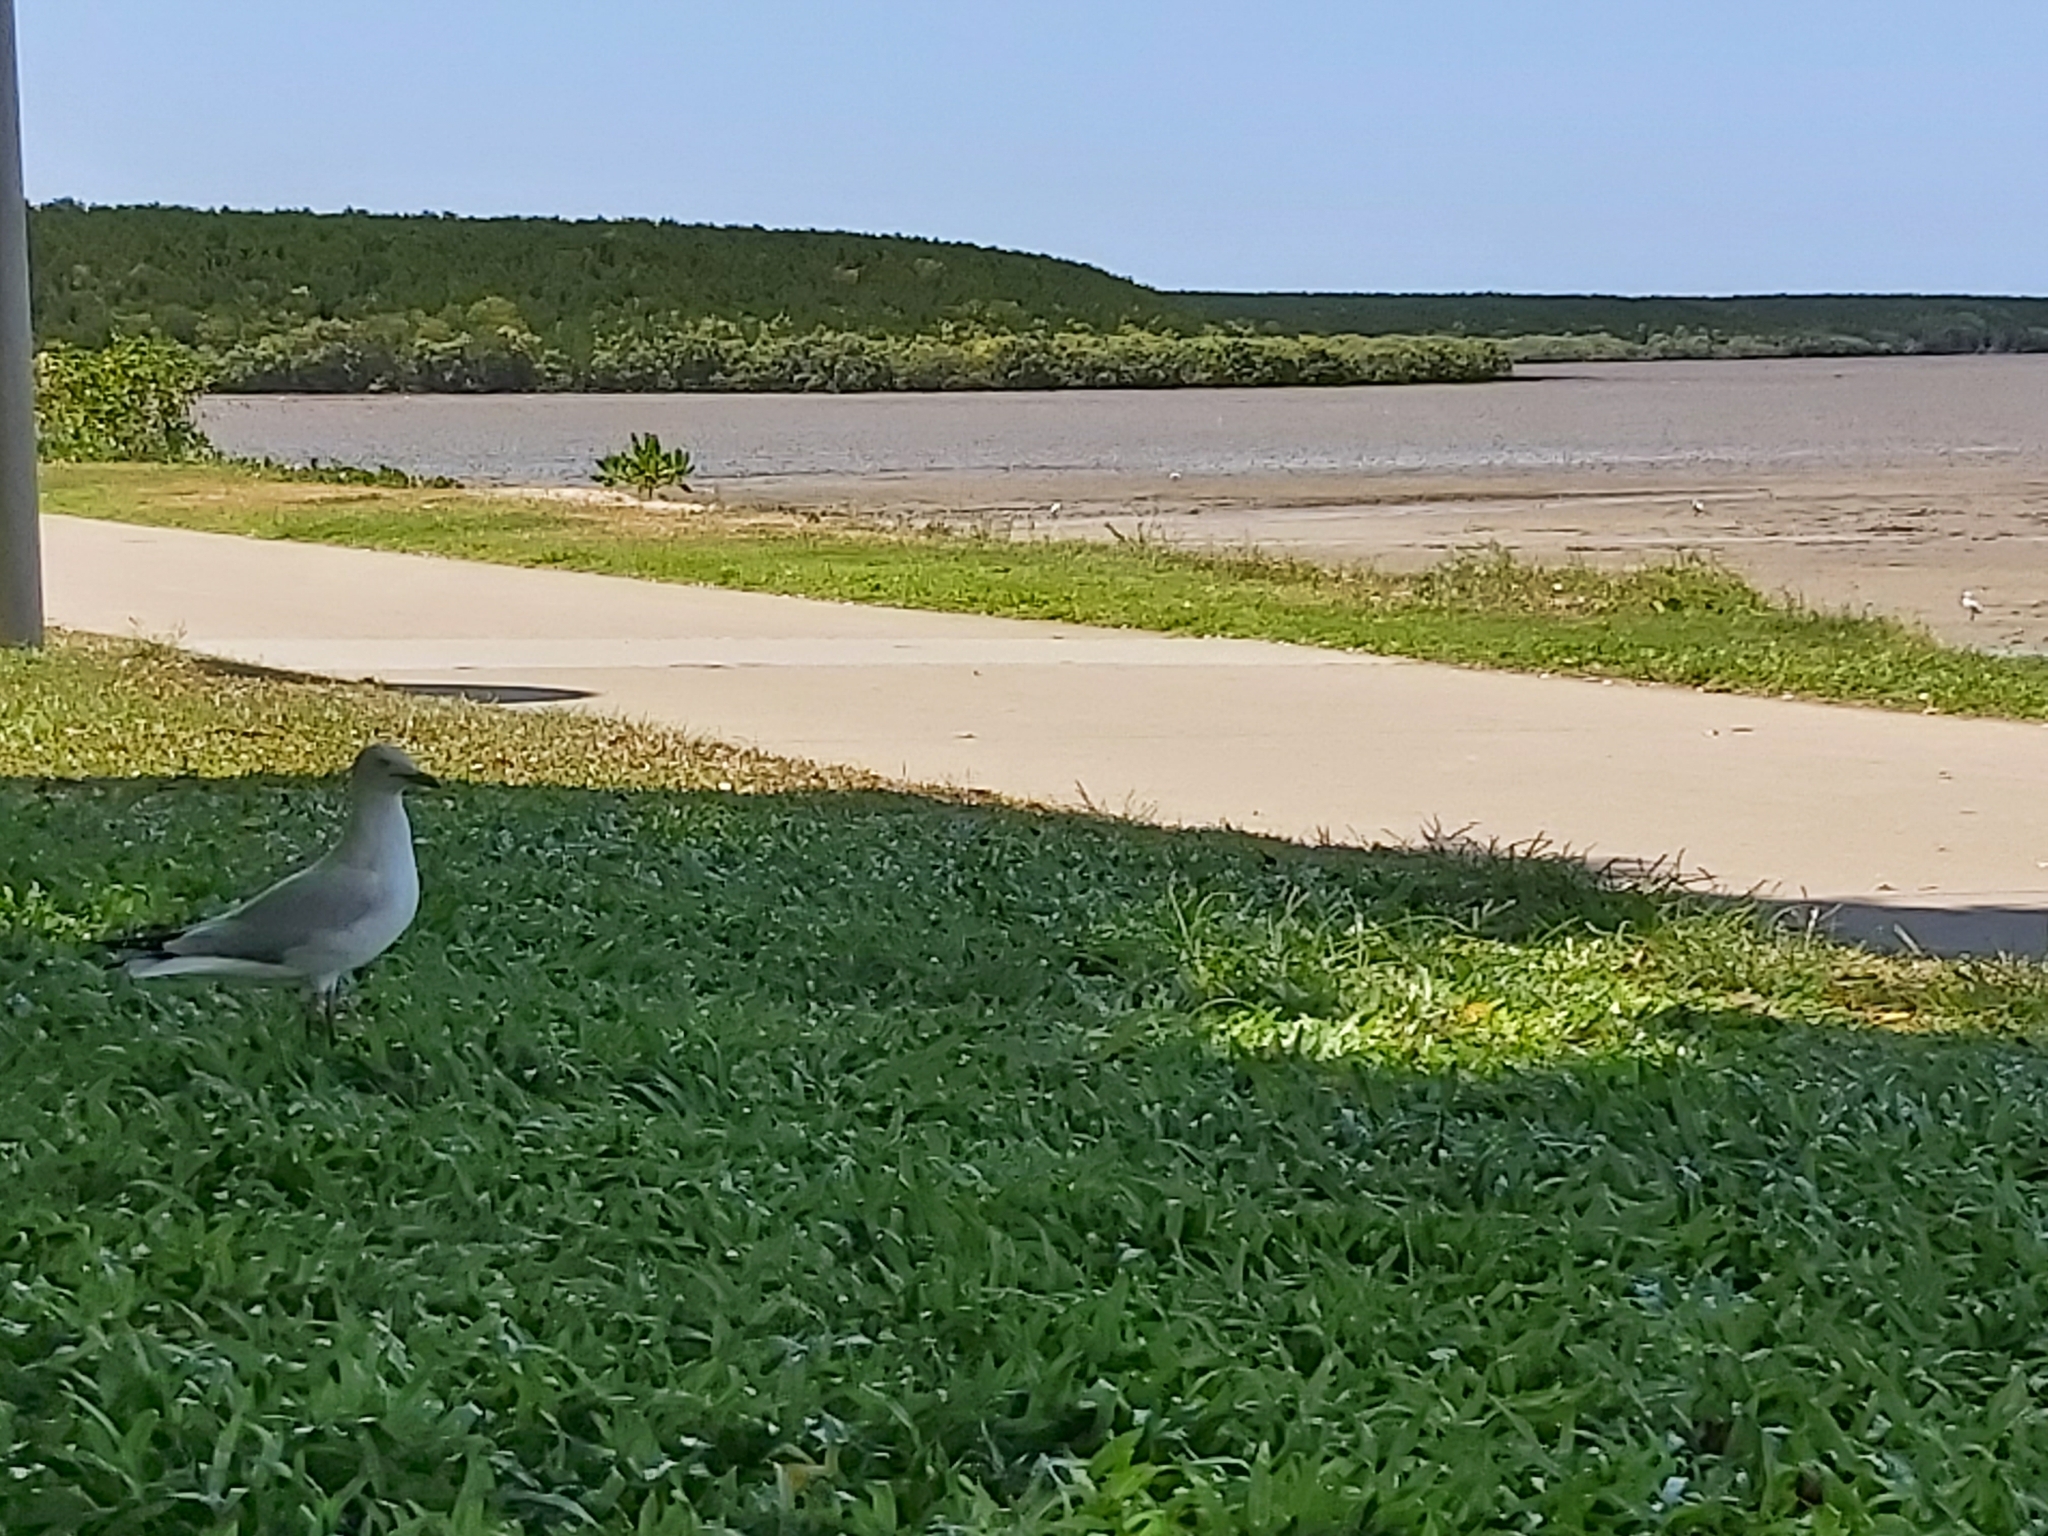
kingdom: Animalia
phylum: Chordata
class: Aves
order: Charadriiformes
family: Laridae
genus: Chroicocephalus
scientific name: Chroicocephalus novaehollandiae
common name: Silver gull
